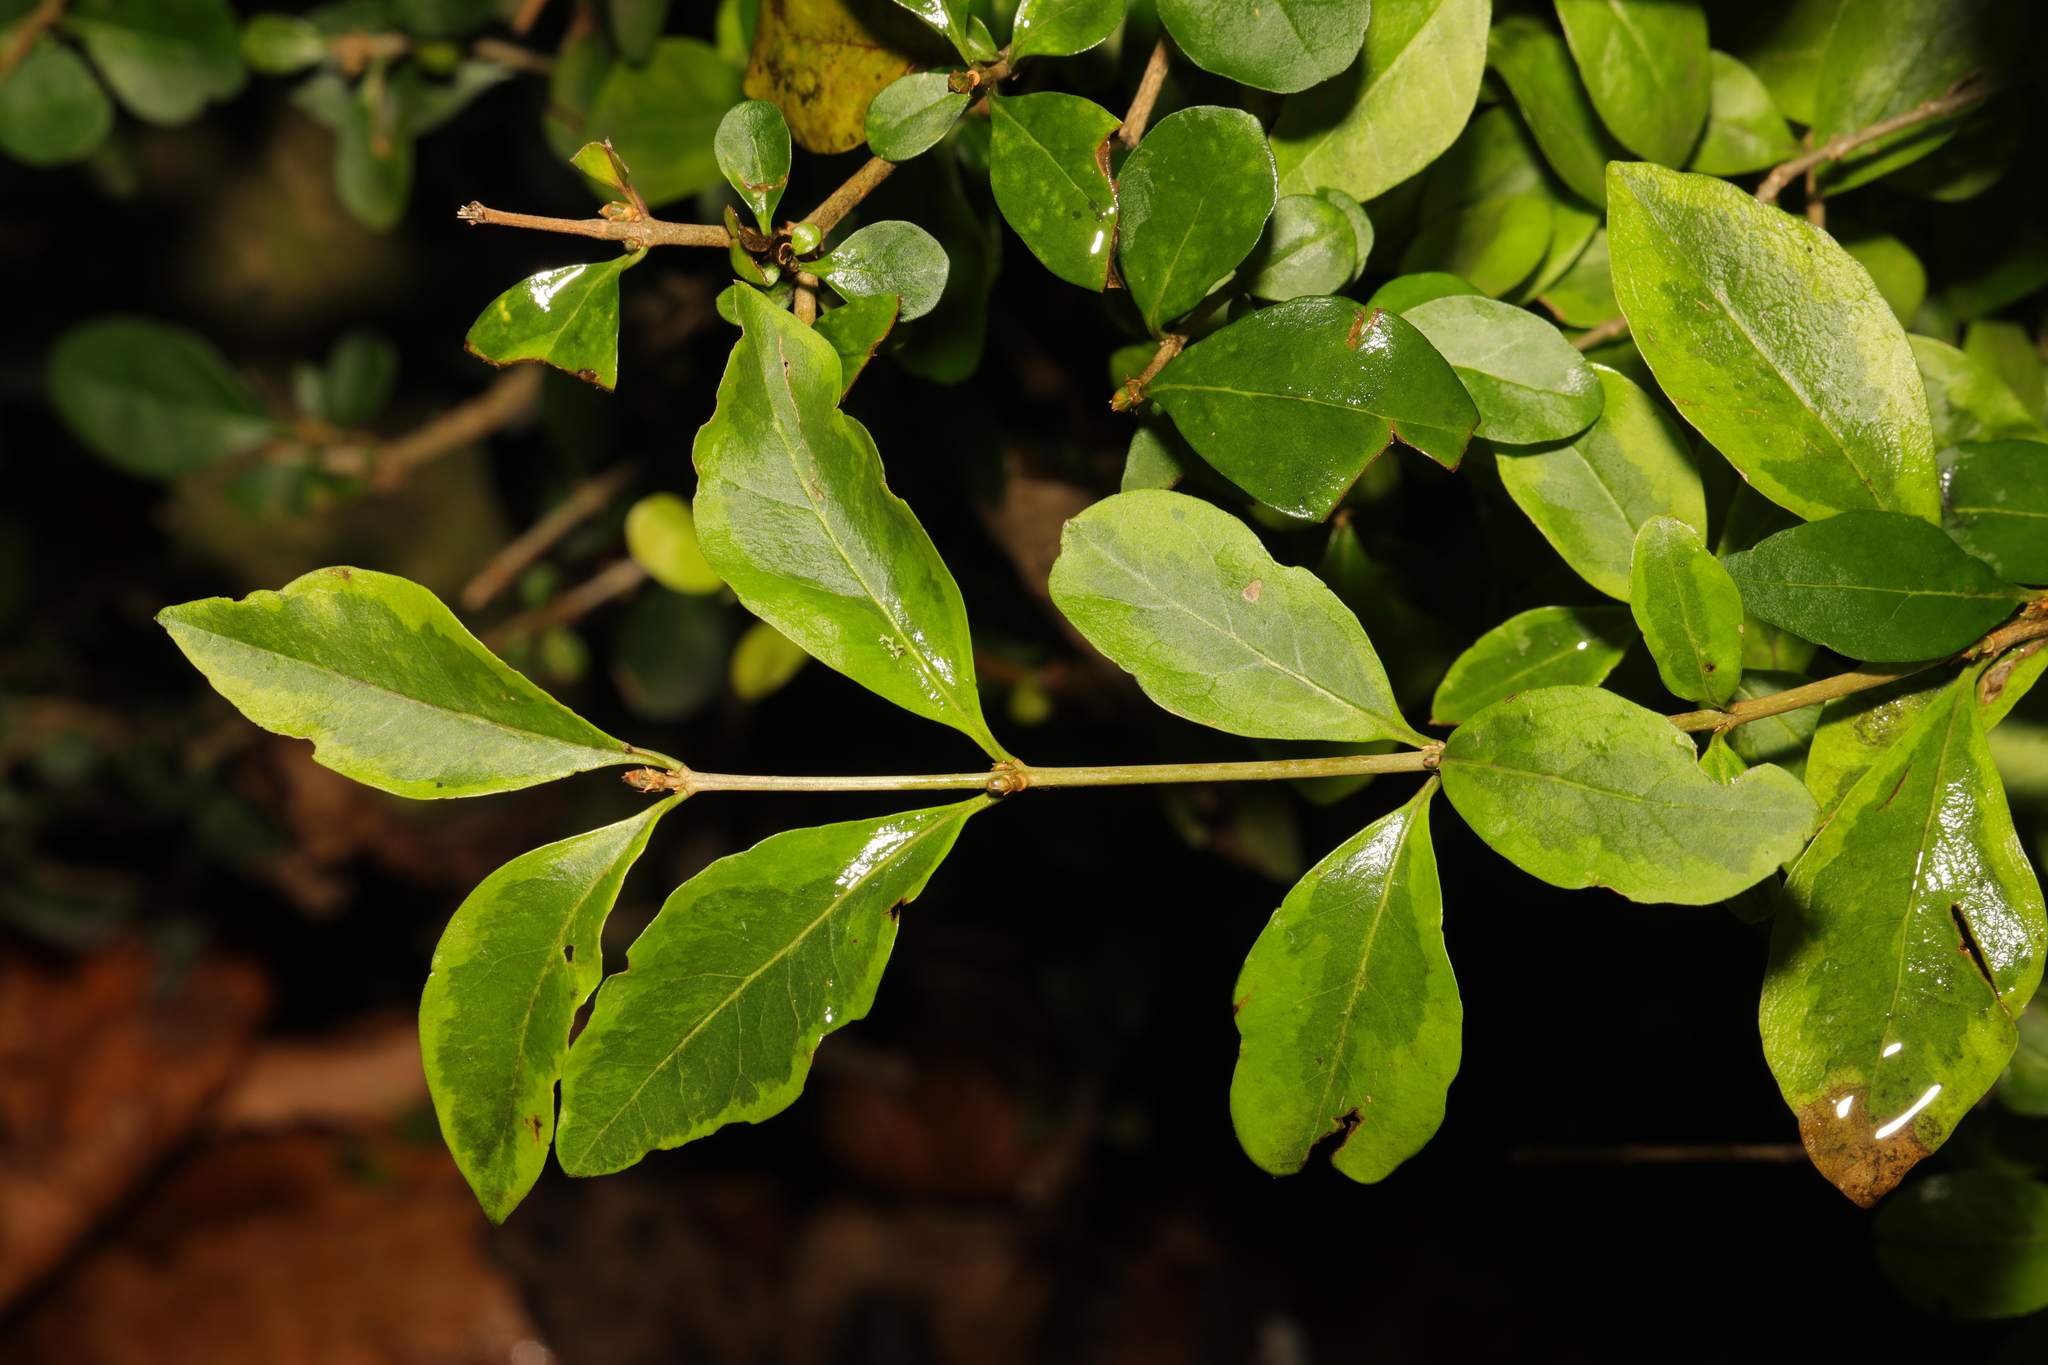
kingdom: Plantae
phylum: Tracheophyta
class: Magnoliopsida
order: Lamiales
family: Oleaceae
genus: Ligustrum
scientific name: Ligustrum ovalifolium
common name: California privet
